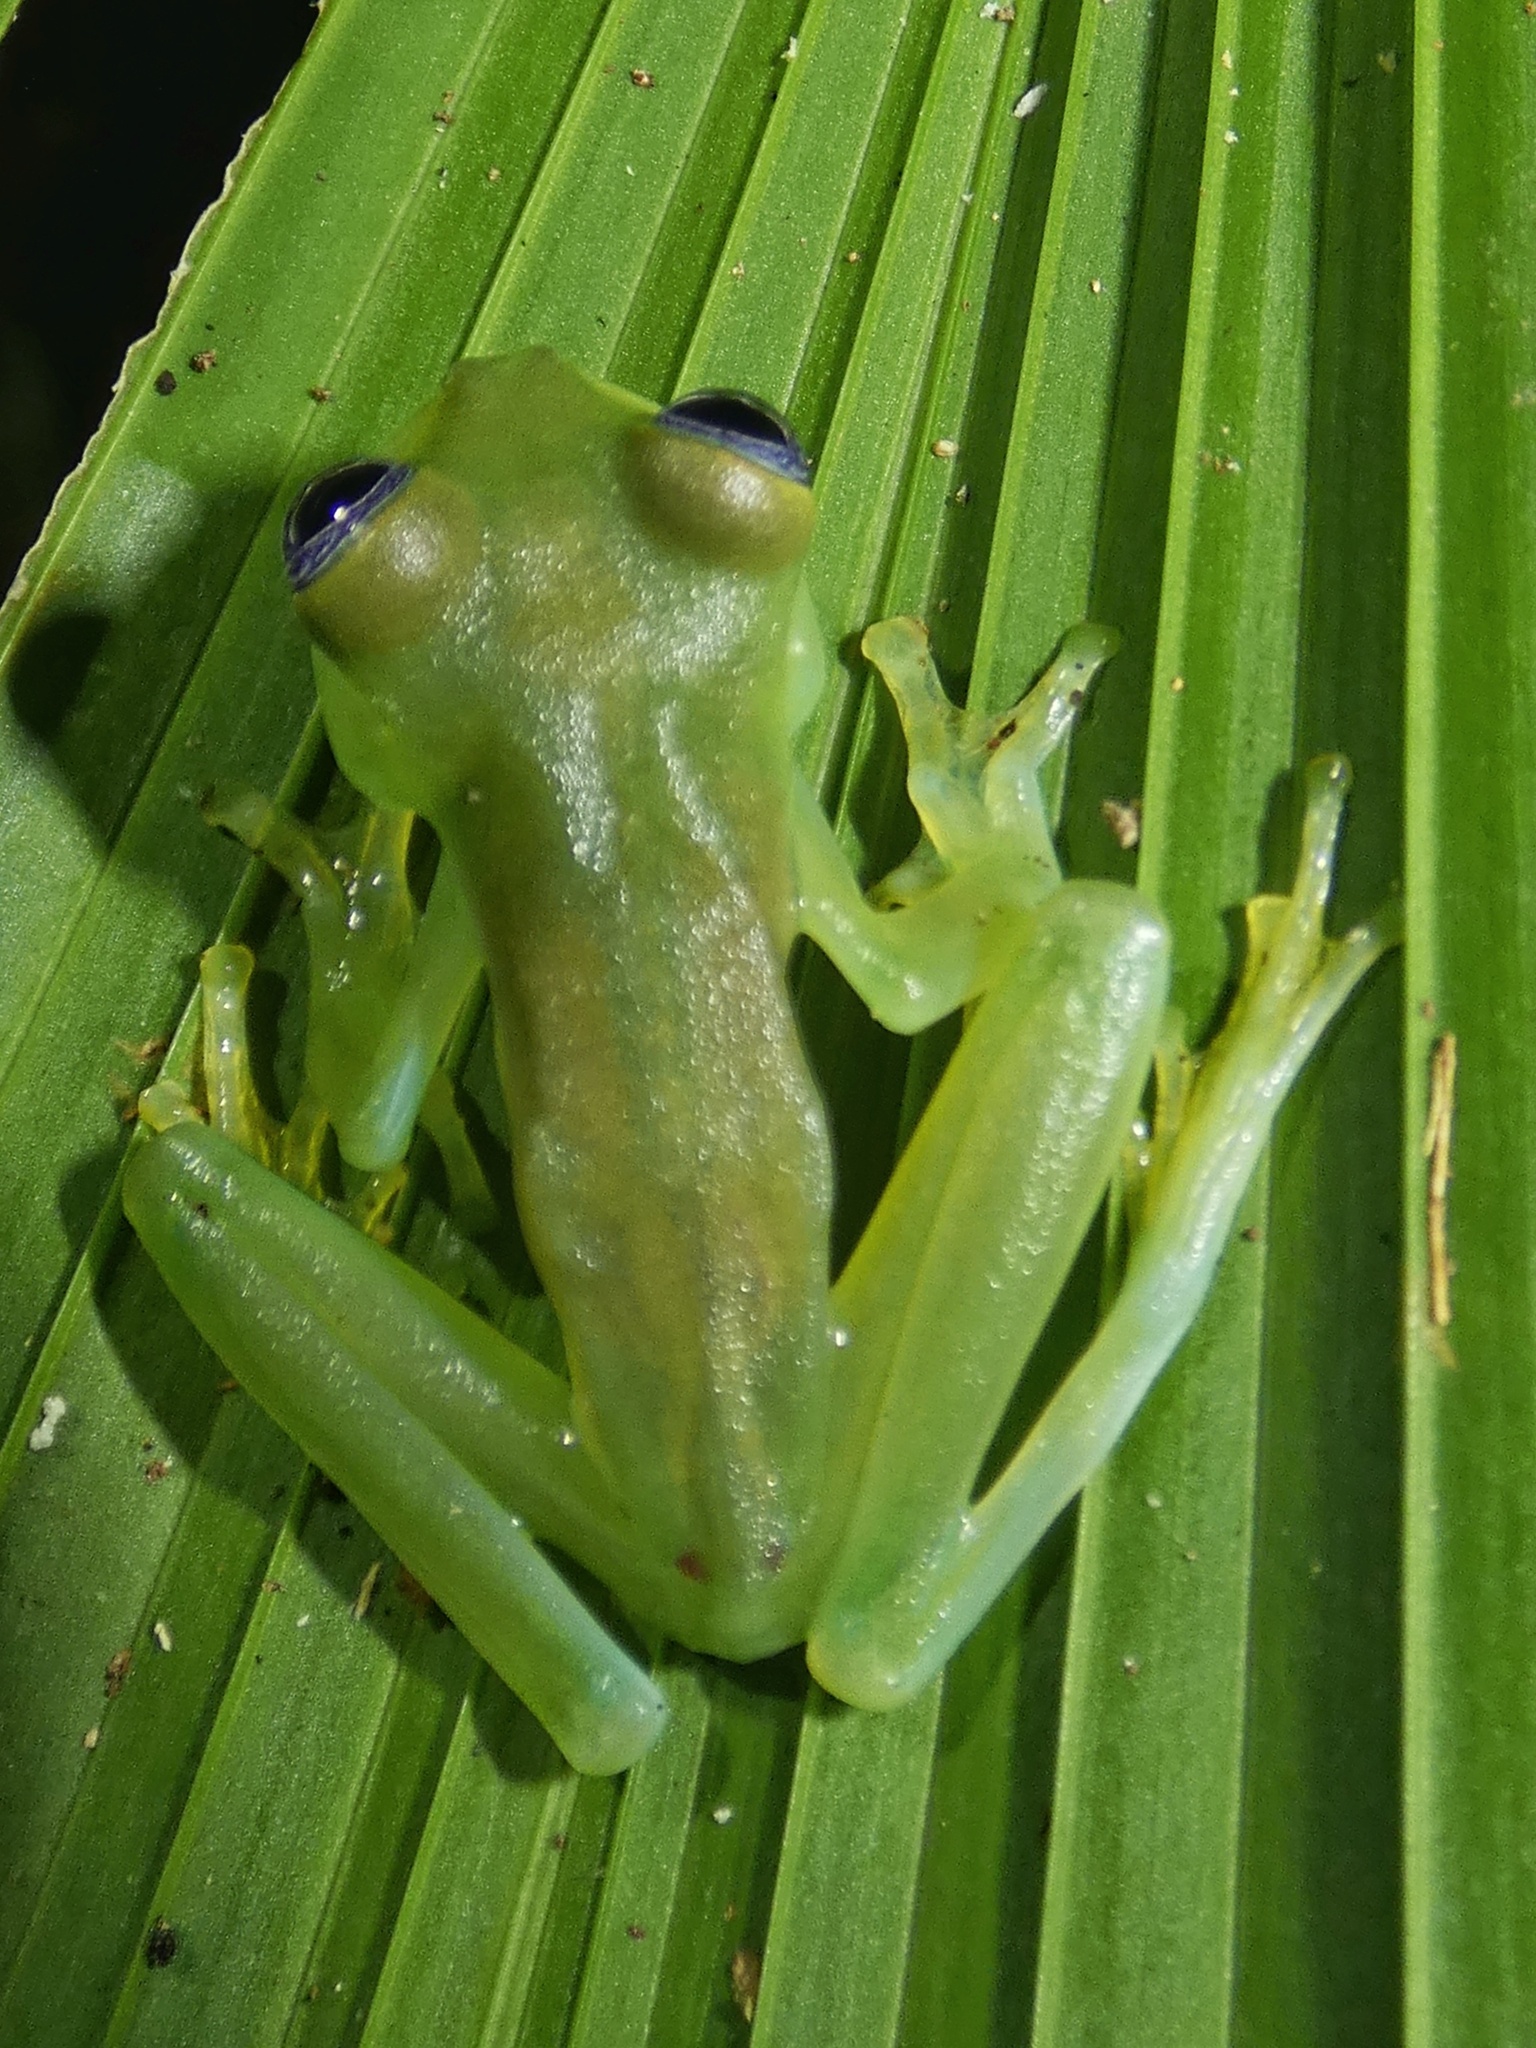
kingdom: Animalia
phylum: Chordata
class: Amphibia
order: Anura
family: Centrolenidae
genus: Sachatamia
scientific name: Sachatamia ilex
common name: Rana de cristal de ojo esplendoroso
